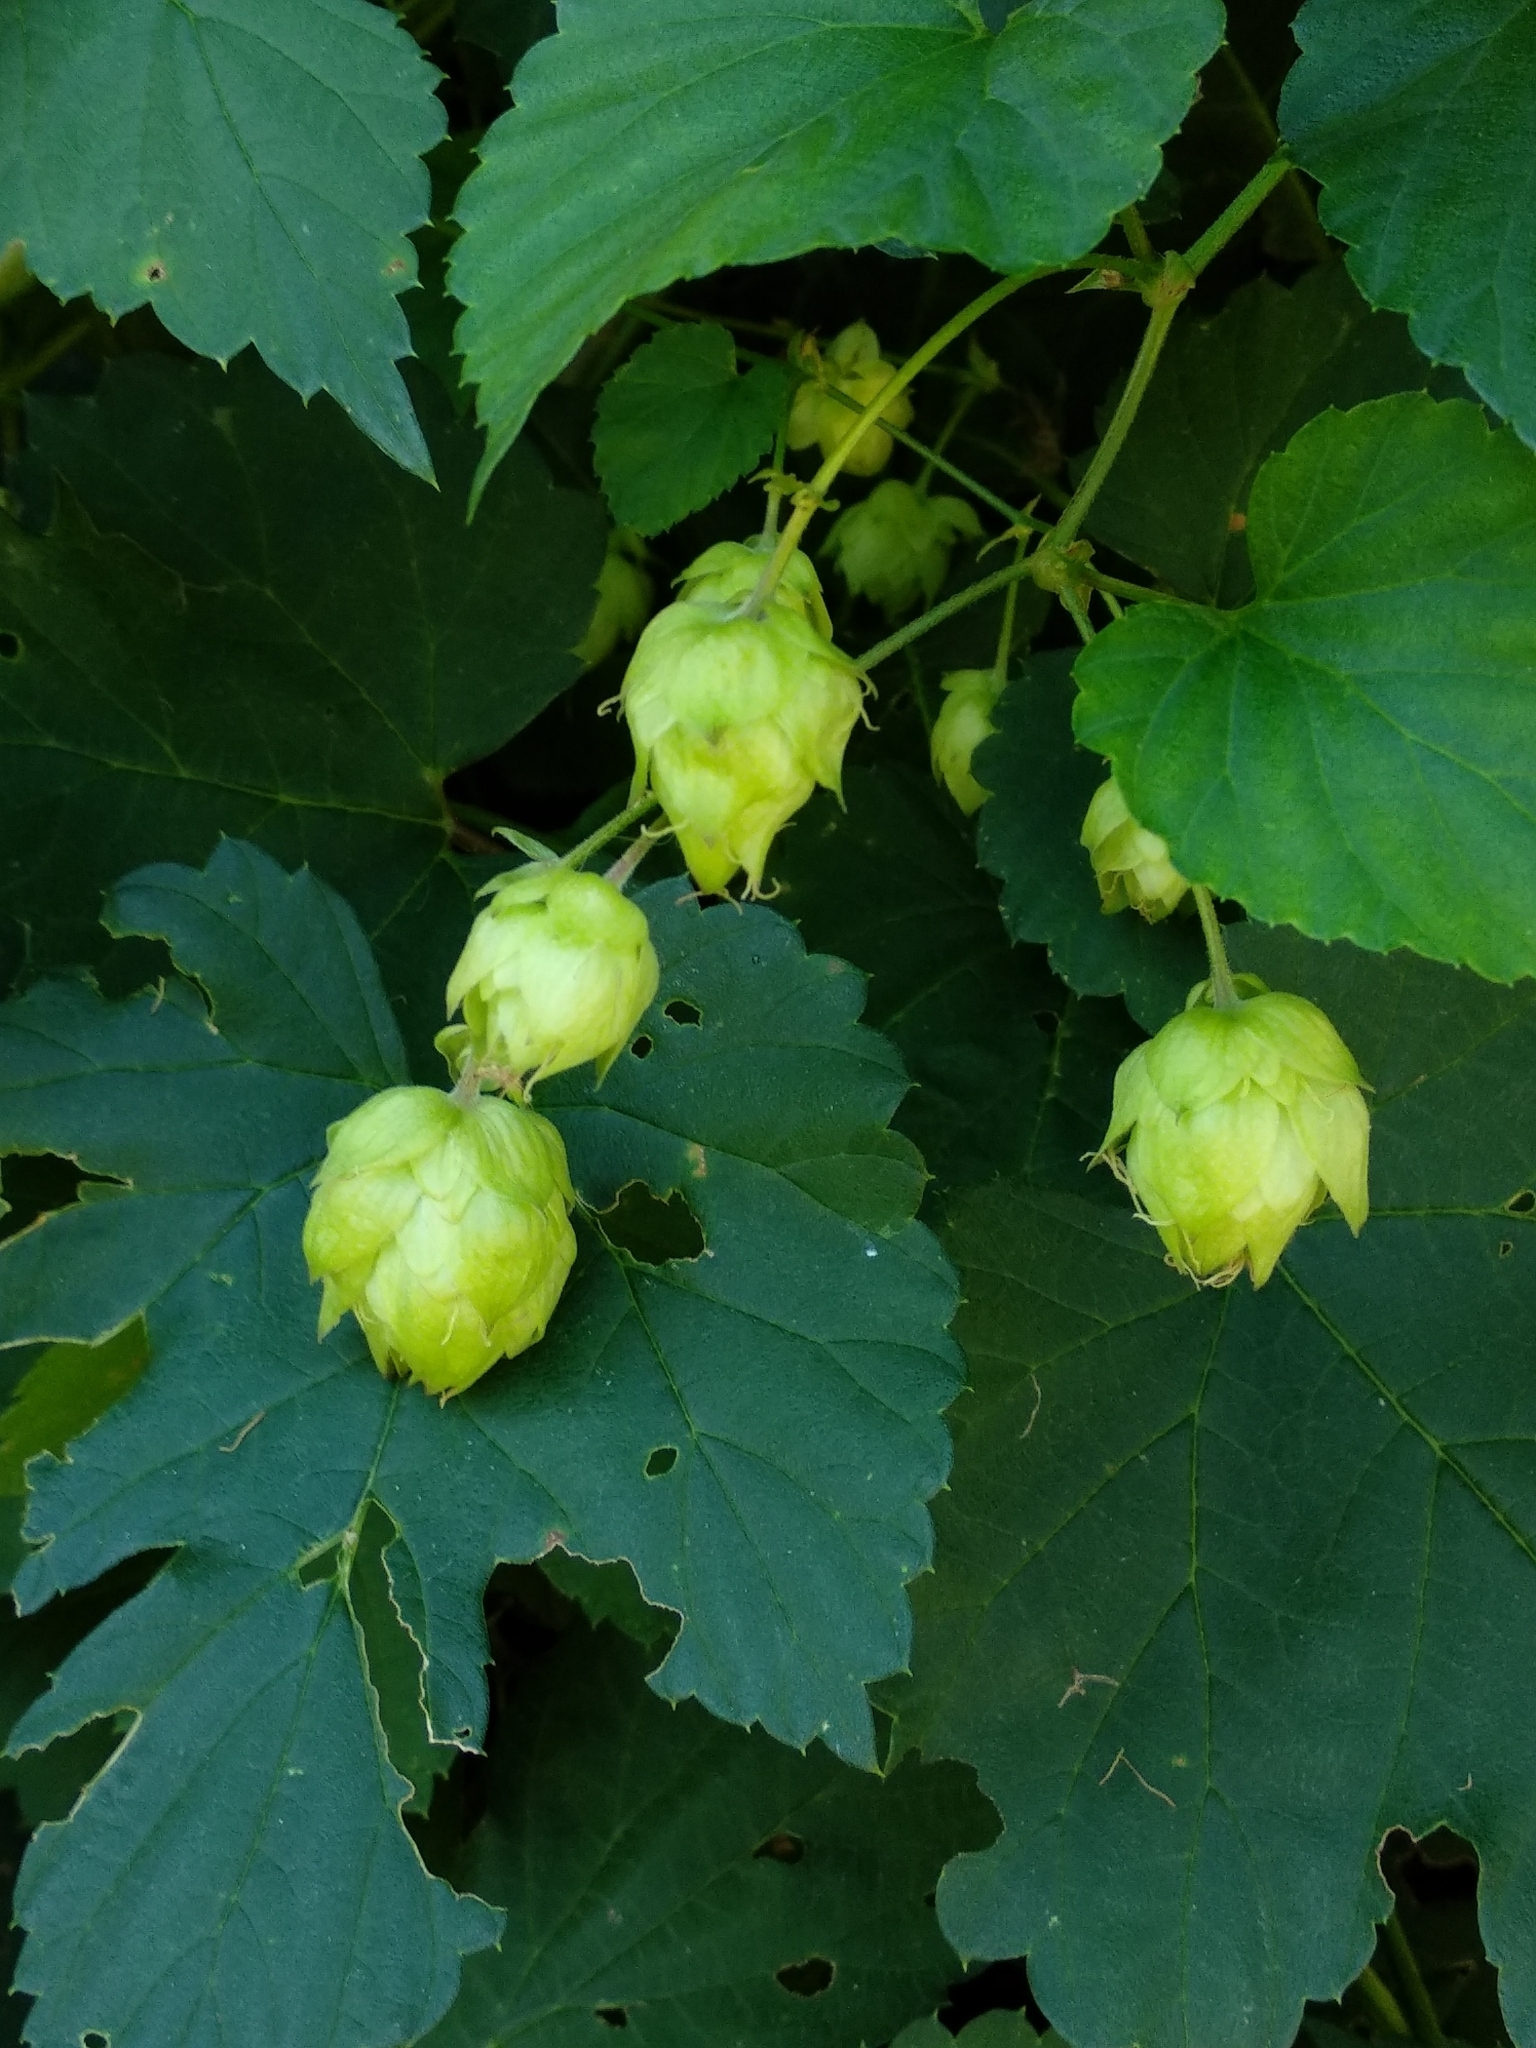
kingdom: Plantae
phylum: Tracheophyta
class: Magnoliopsida
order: Rosales
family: Cannabaceae
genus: Humulus
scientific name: Humulus lupulus
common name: Hop
